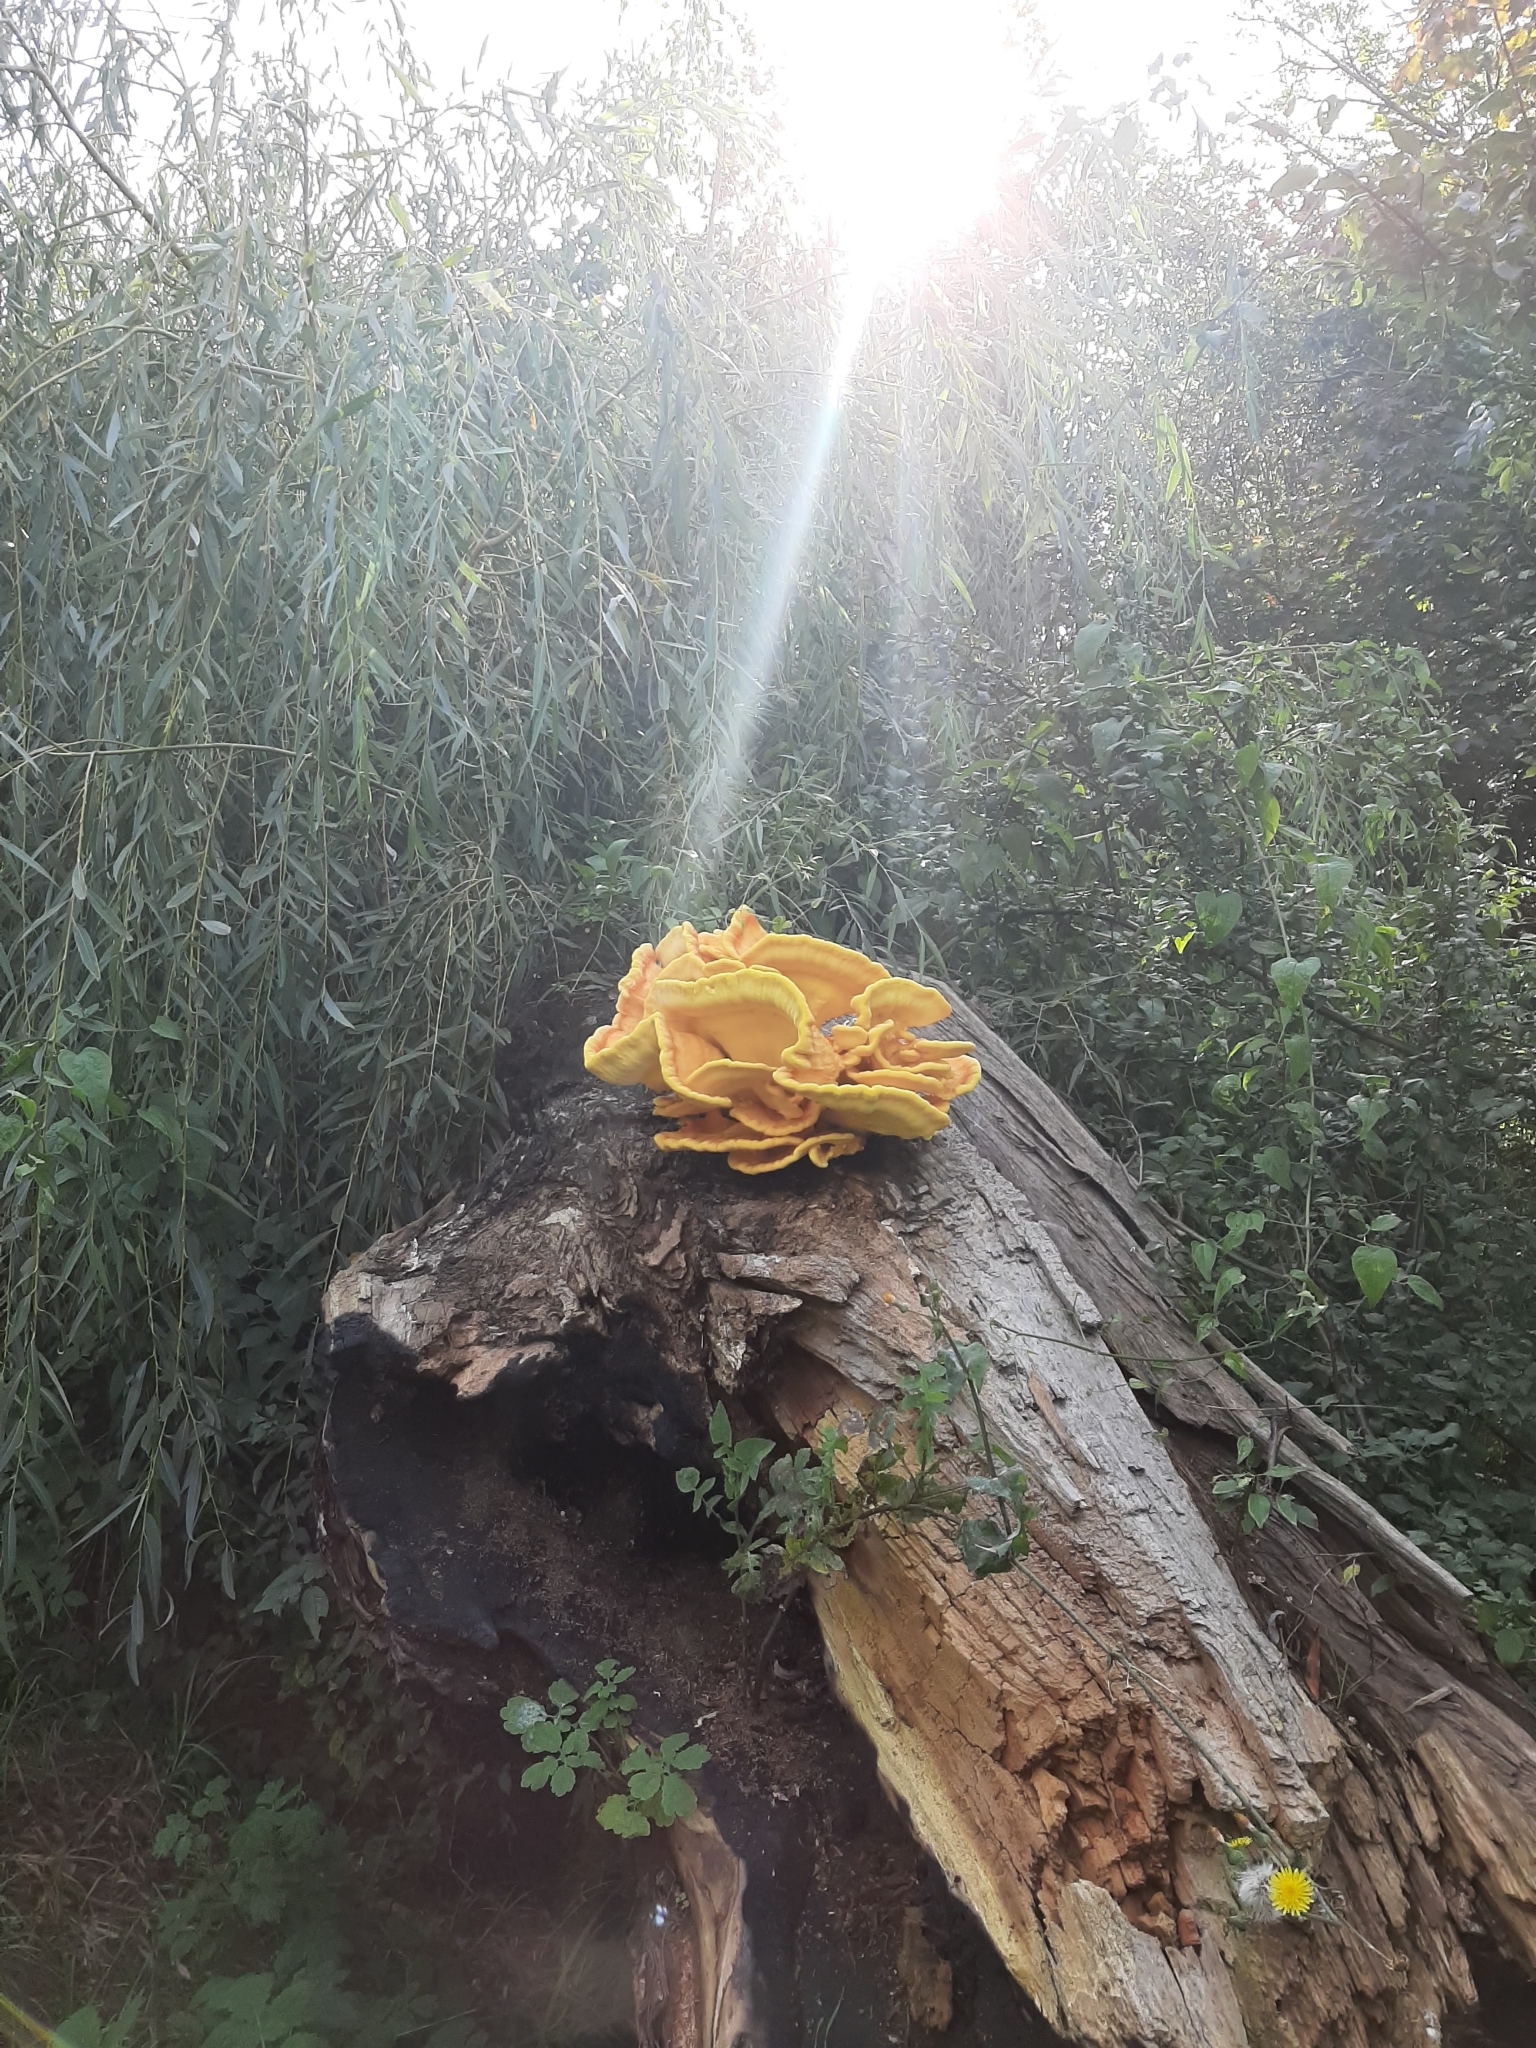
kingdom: Fungi
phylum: Basidiomycota
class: Agaricomycetes
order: Polyporales
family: Laetiporaceae
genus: Laetiporus
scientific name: Laetiporus sulphureus
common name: Chicken of the woods
